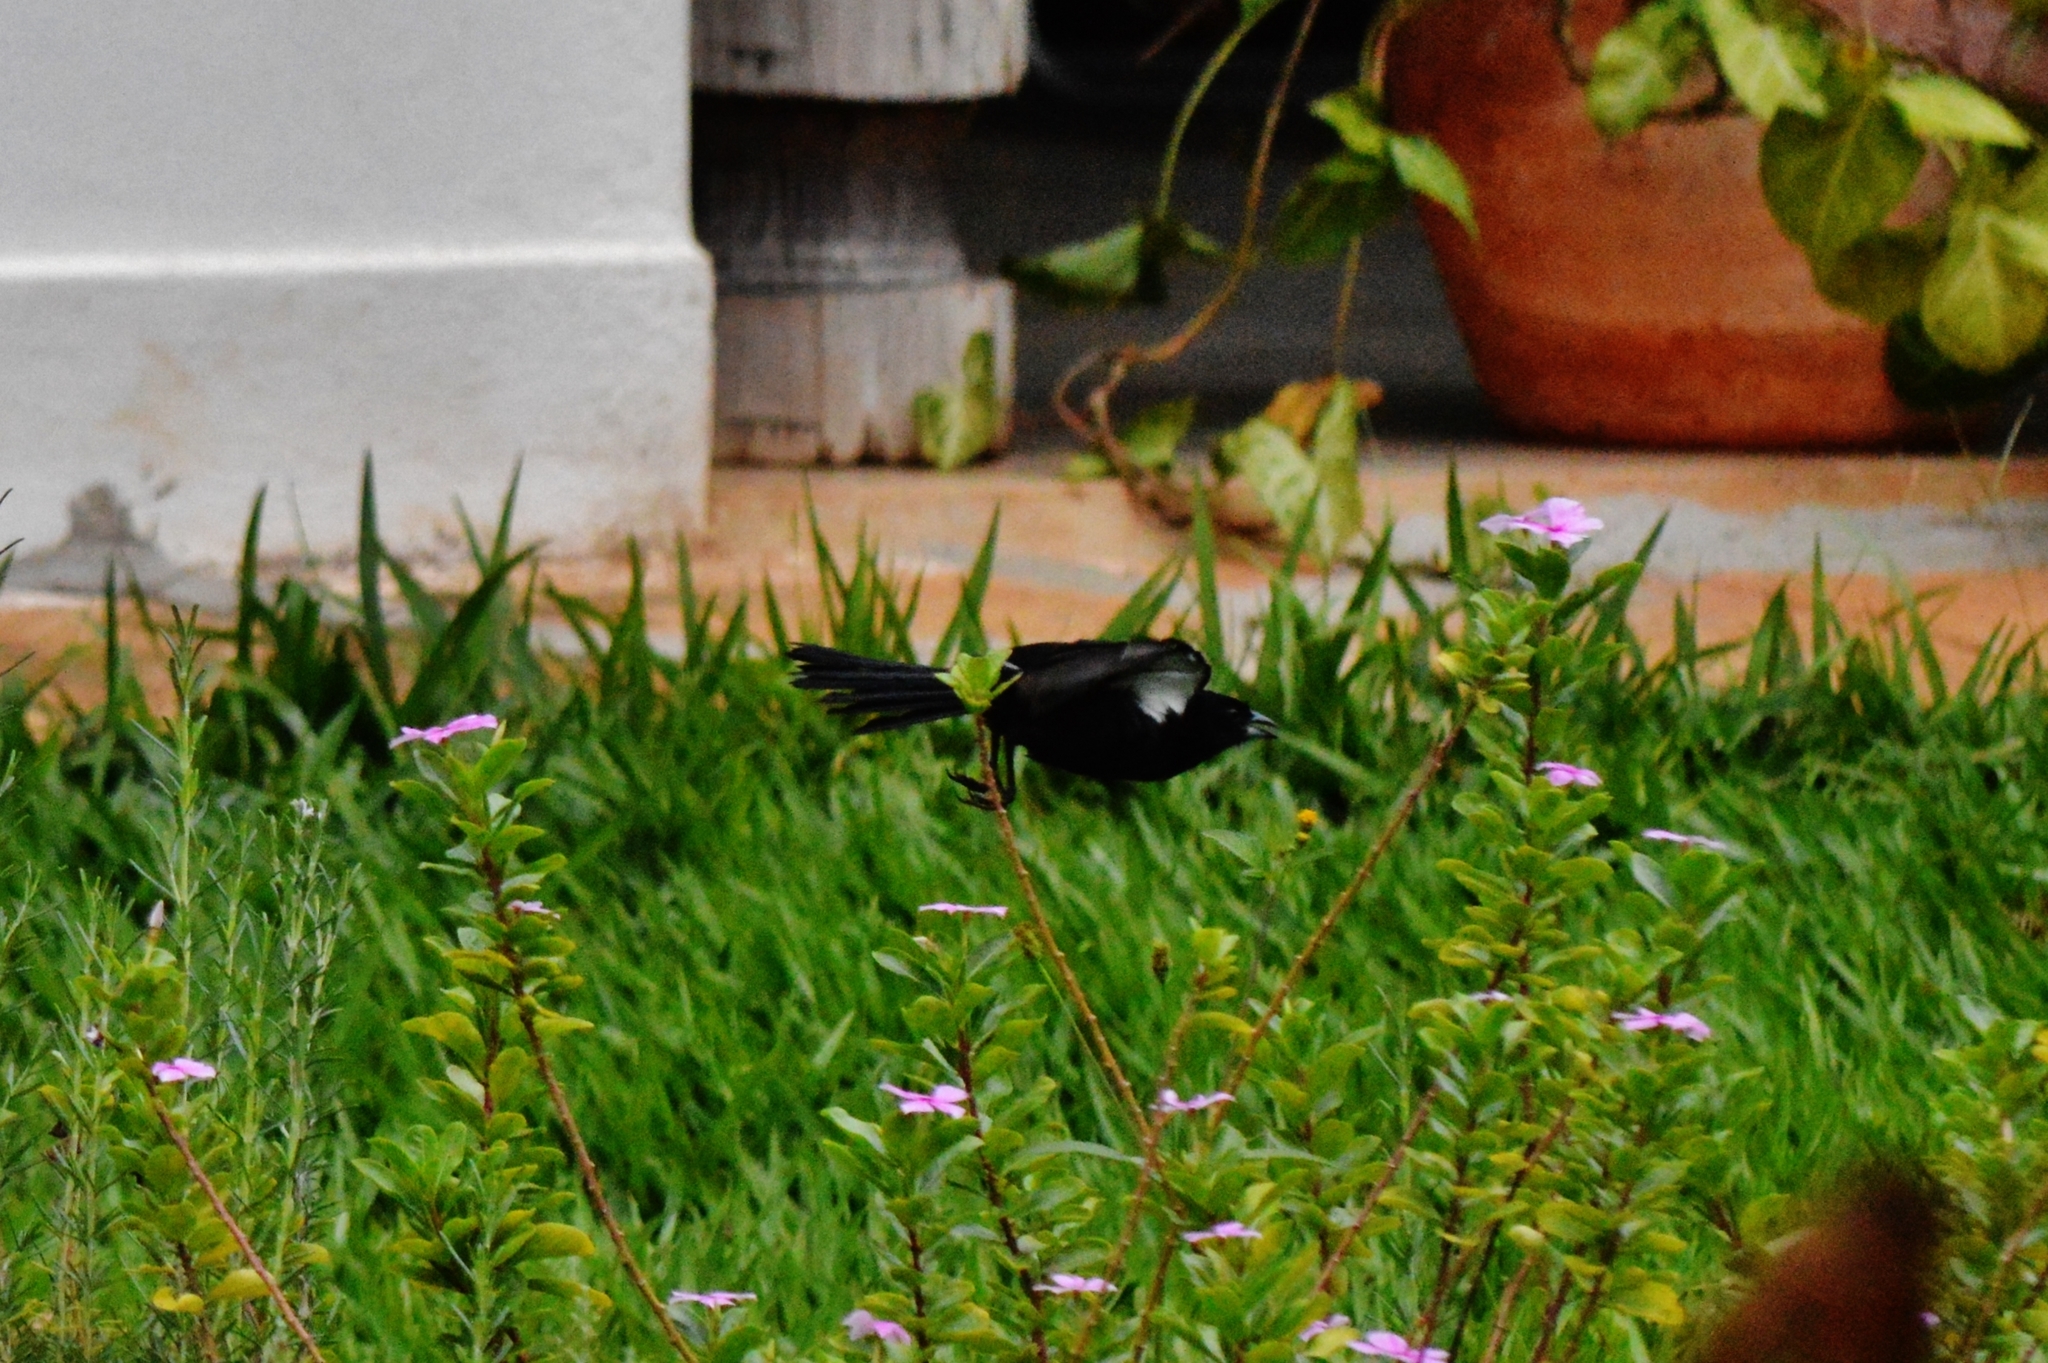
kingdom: Animalia
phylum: Chordata
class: Aves
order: Passeriformes
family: Thraupidae
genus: Tachyphonus
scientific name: Tachyphonus rufus
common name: White-lined tanager
